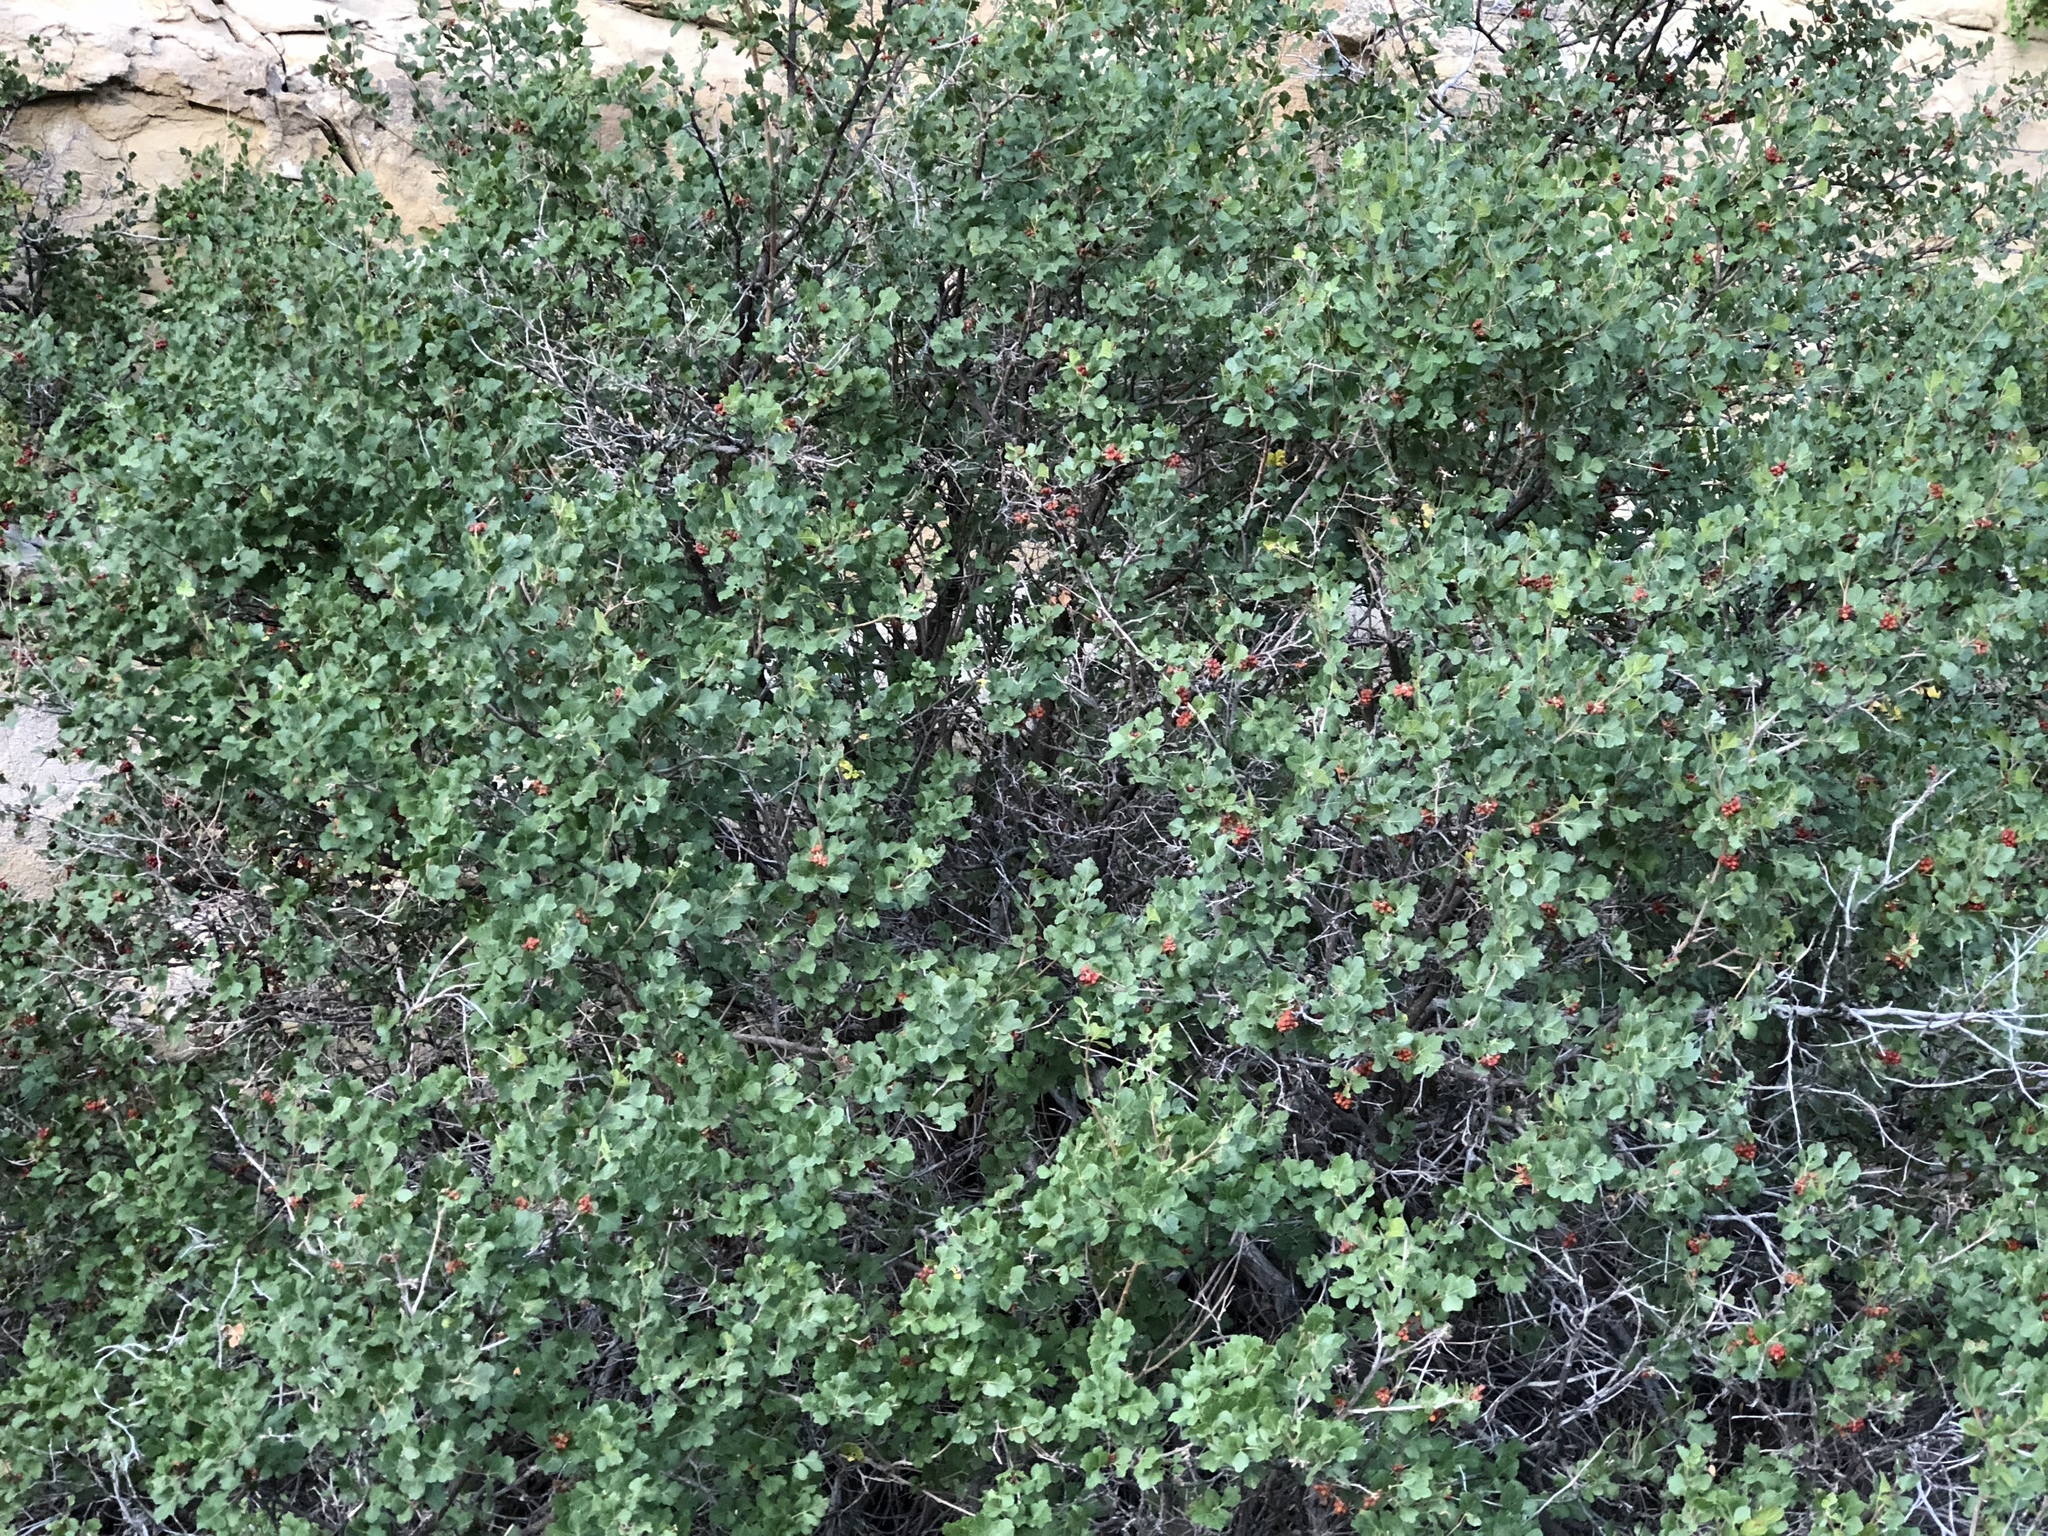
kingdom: Plantae
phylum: Tracheophyta
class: Magnoliopsida
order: Sapindales
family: Anacardiaceae
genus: Rhus
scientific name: Rhus aromatica
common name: Aromatic sumac
